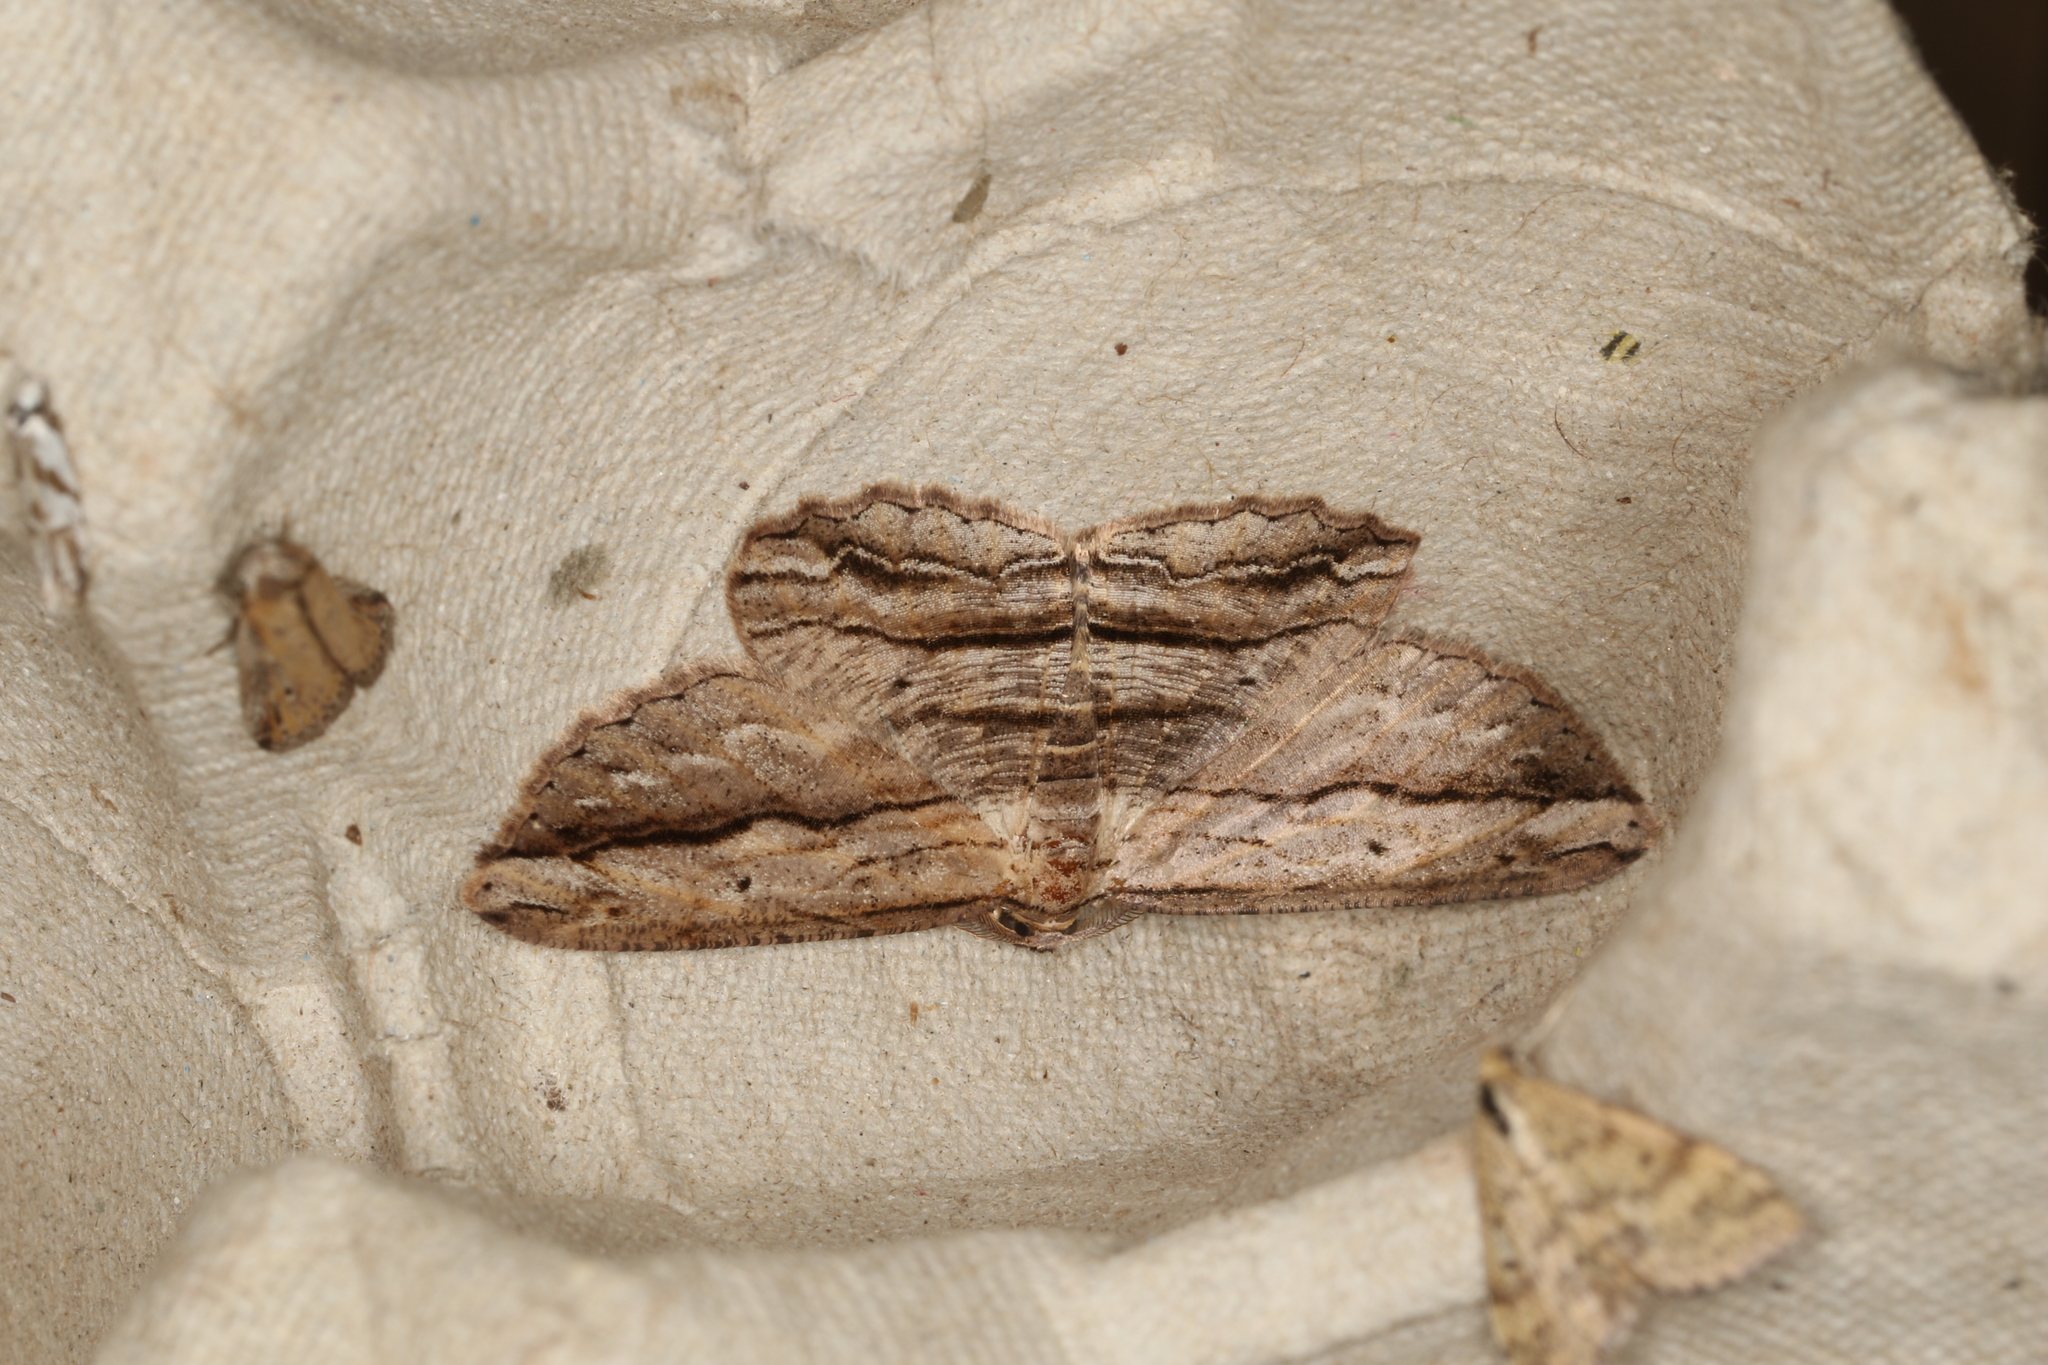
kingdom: Animalia
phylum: Arthropoda
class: Insecta
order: Lepidoptera
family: Geometridae
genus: Scioglyptis
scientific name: Scioglyptis loxographa
